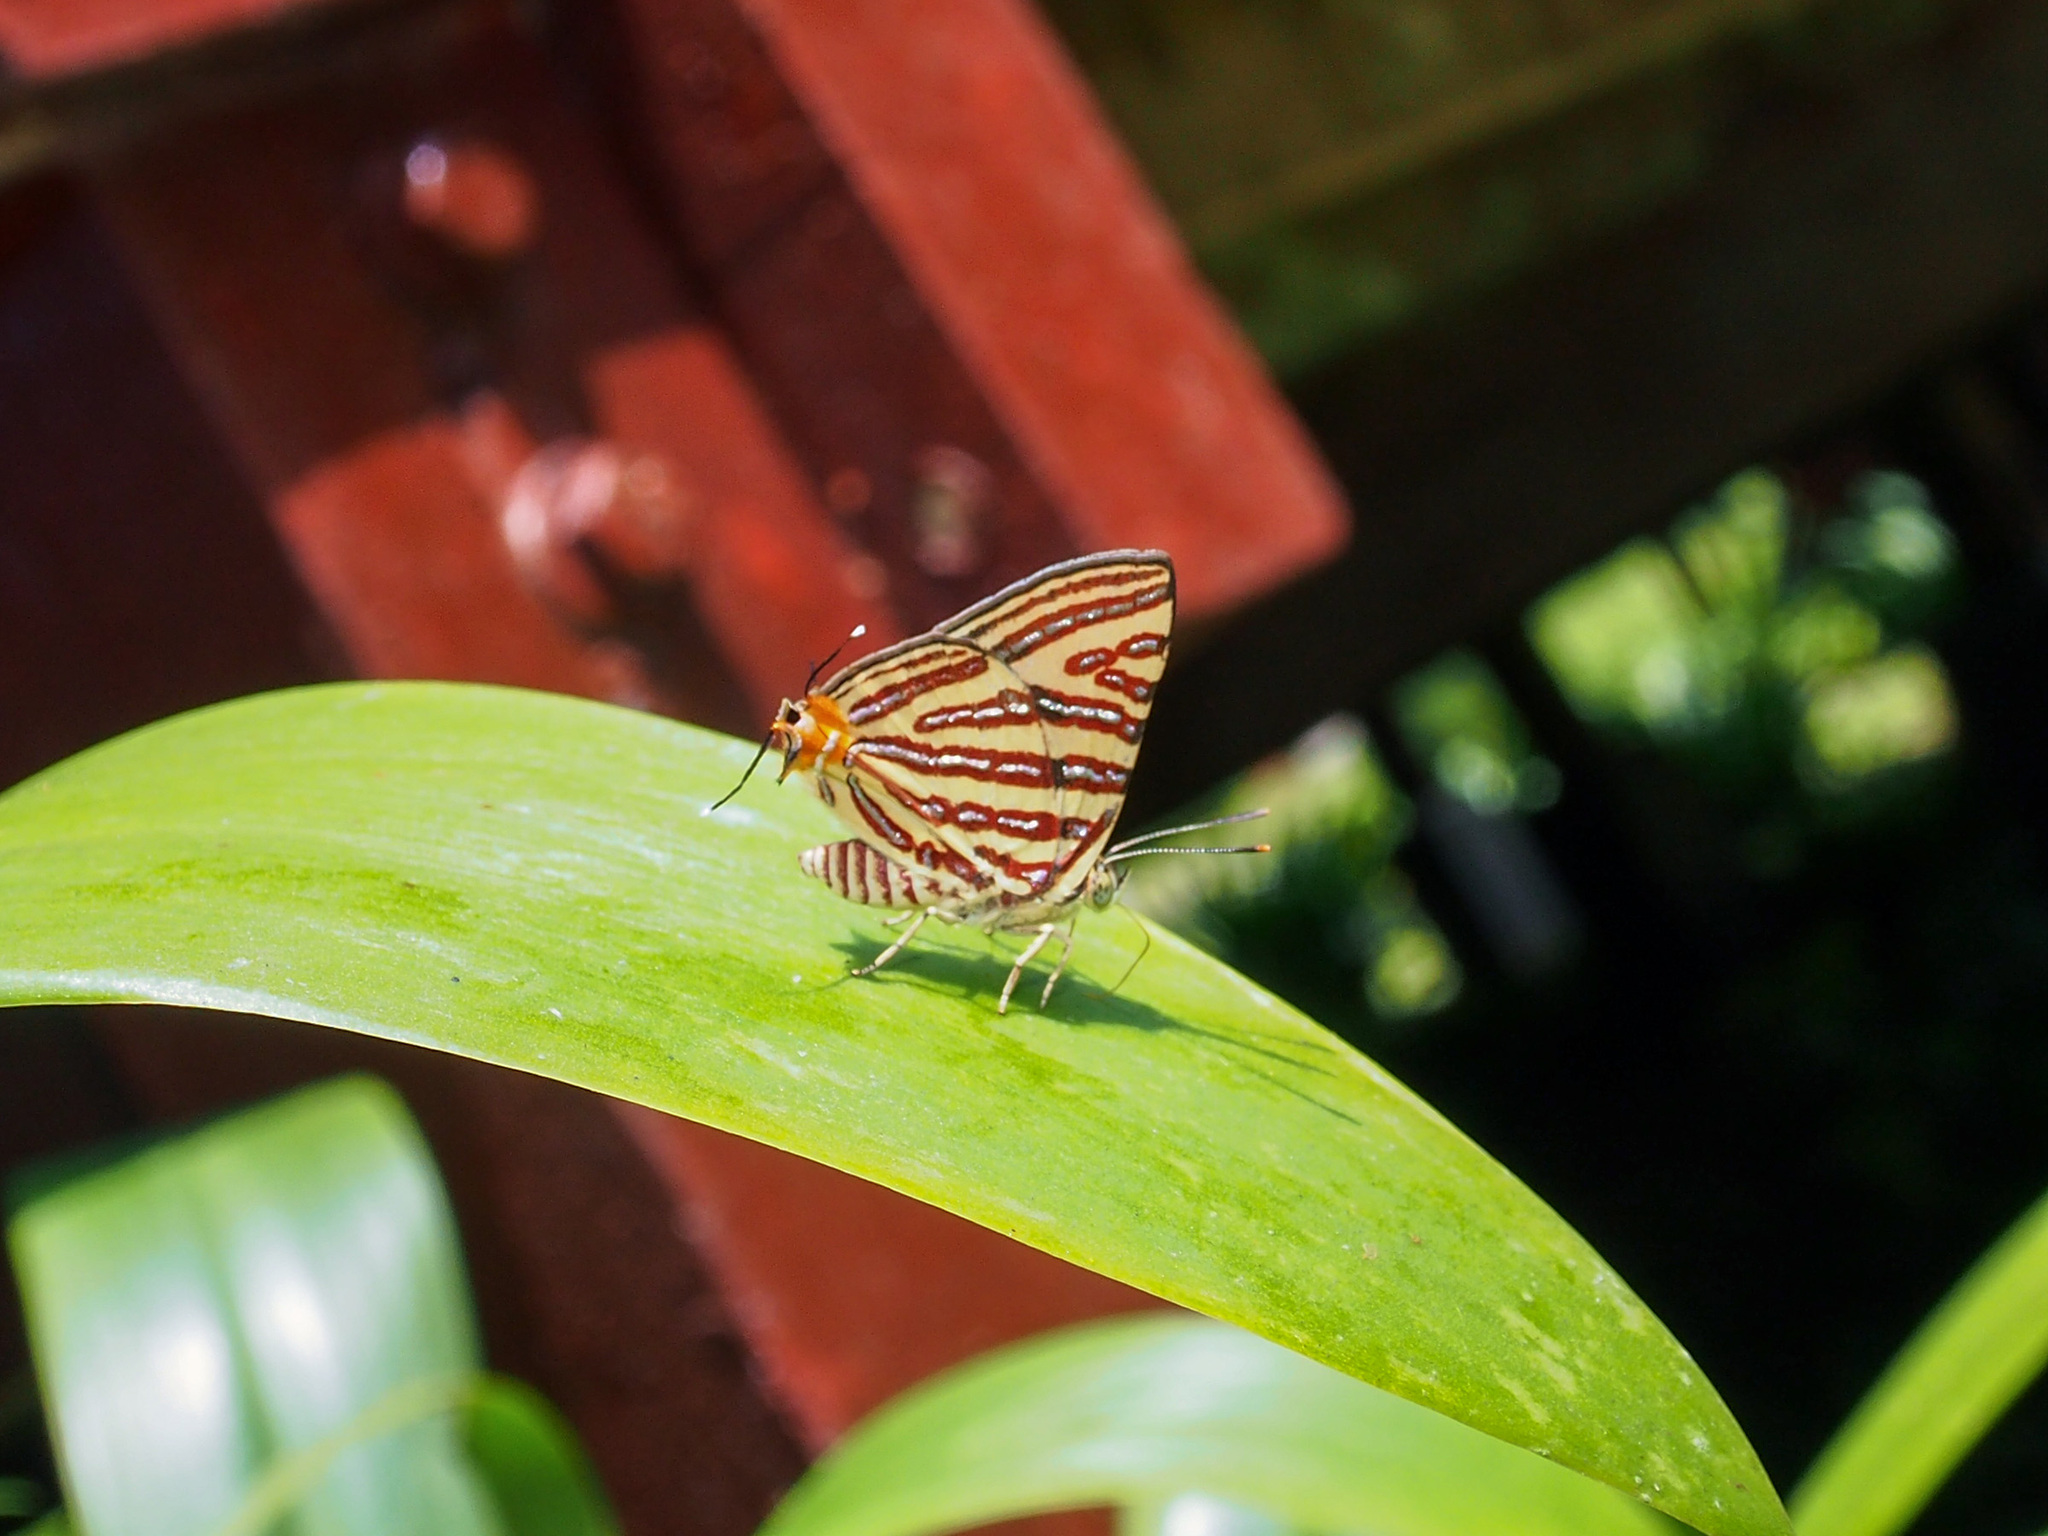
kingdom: Animalia
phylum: Arthropoda
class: Insecta
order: Lepidoptera
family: Lycaenidae
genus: Cigaritis
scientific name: Cigaritis lohita
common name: Long-banded silverline
